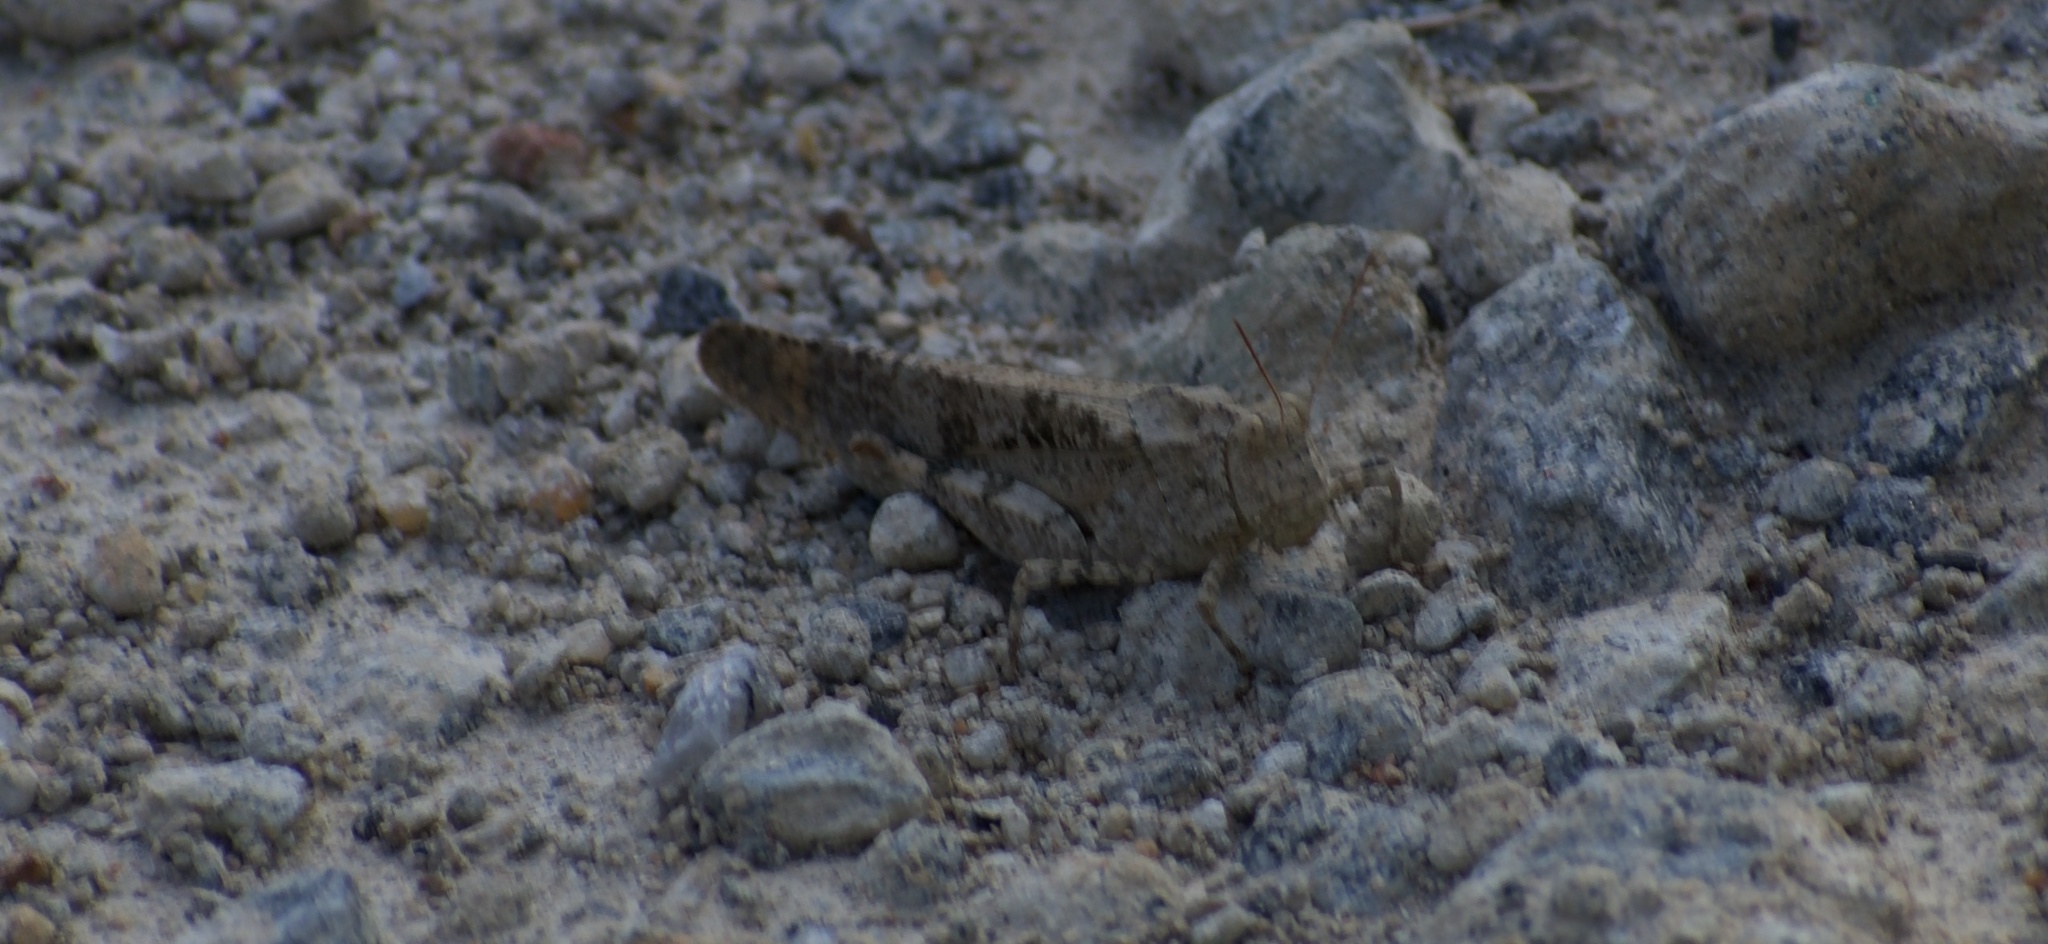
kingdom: Animalia
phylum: Arthropoda
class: Insecta
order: Orthoptera
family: Acrididae
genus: Dissosteira
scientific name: Dissosteira carolina
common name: Carolina grasshopper
